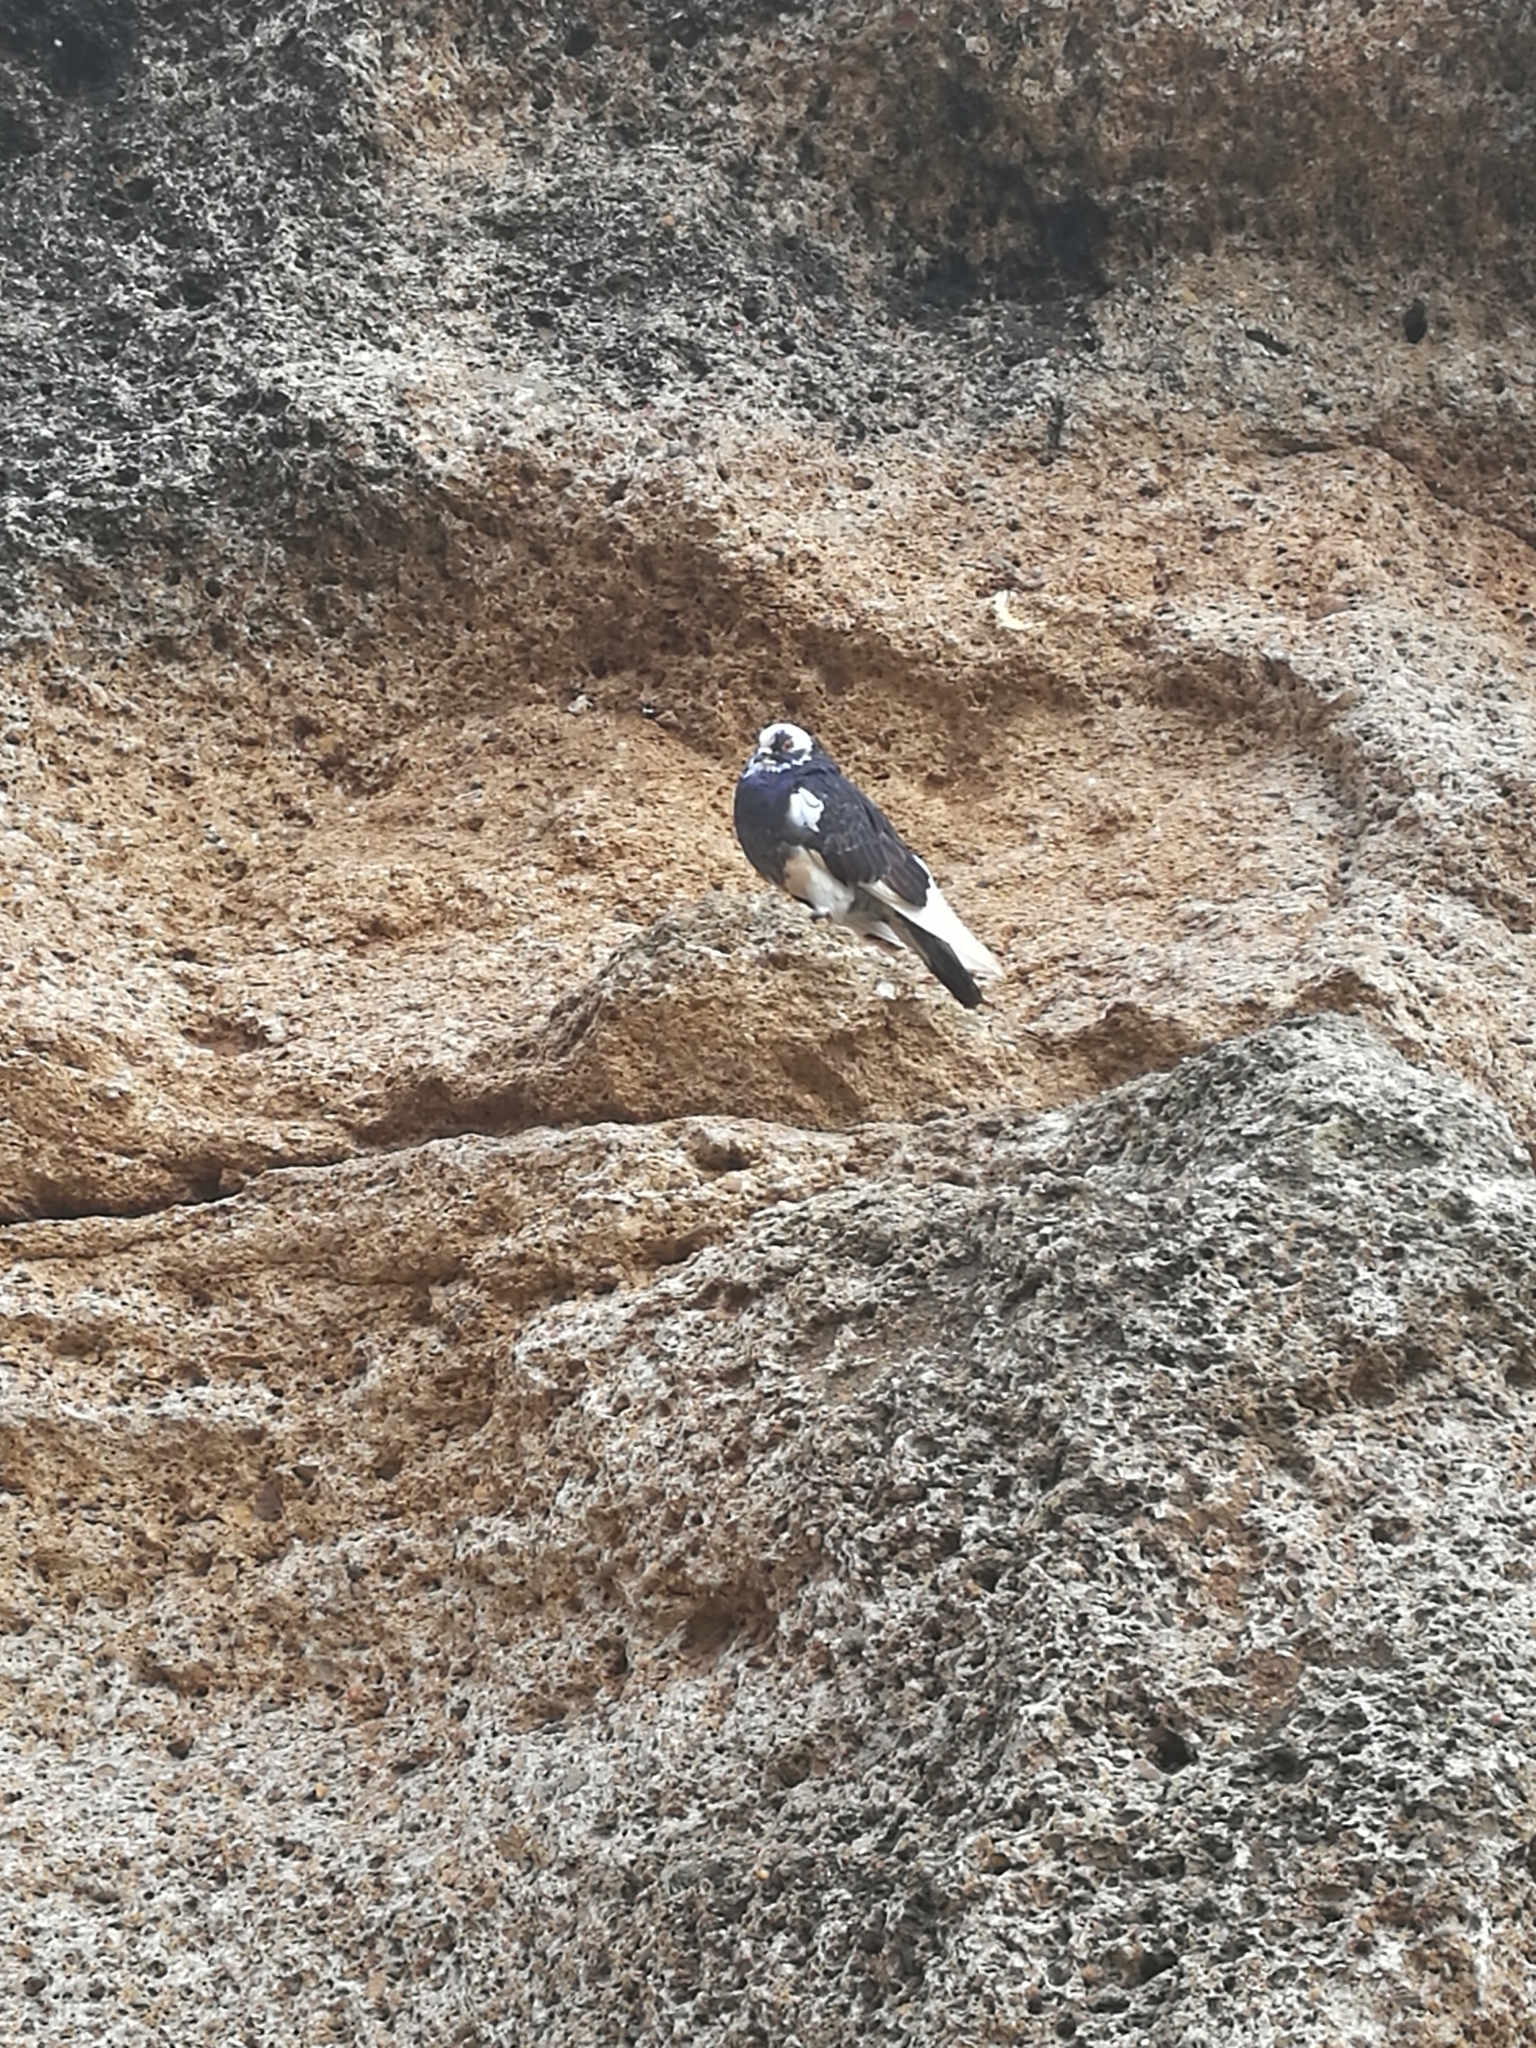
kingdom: Animalia
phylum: Chordata
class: Aves
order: Columbiformes
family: Columbidae
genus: Columba
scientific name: Columba livia
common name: Rock pigeon
